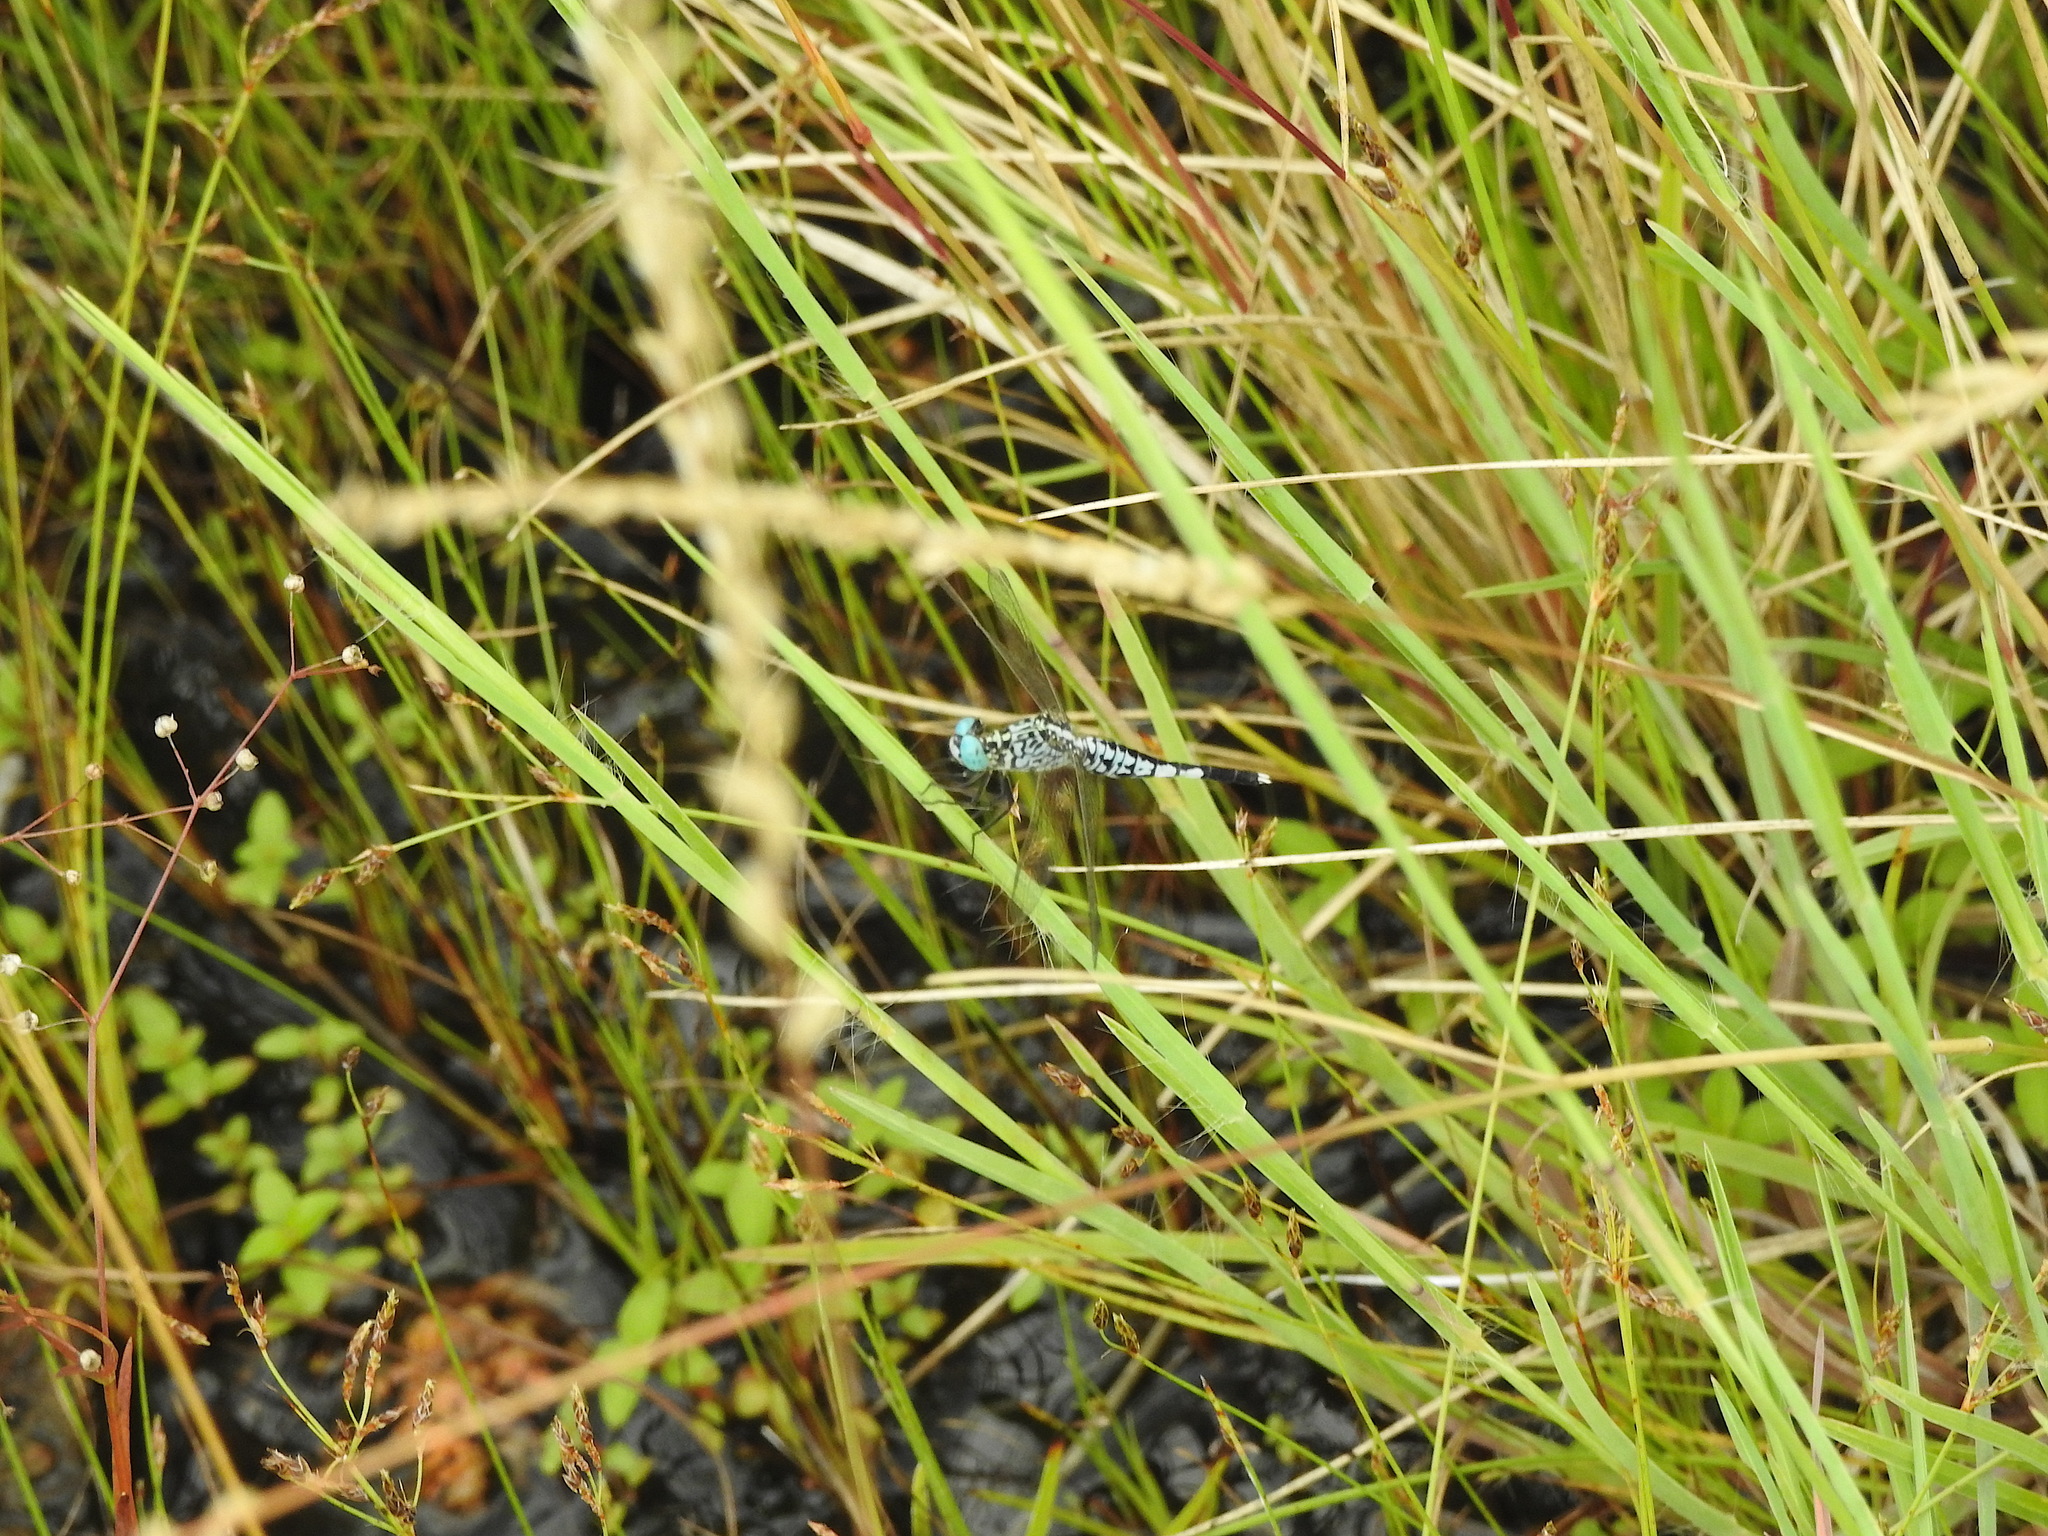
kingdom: Animalia
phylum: Arthropoda
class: Insecta
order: Odonata
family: Libellulidae
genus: Acisoma
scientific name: Acisoma panorpoides
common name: Asian pintail
